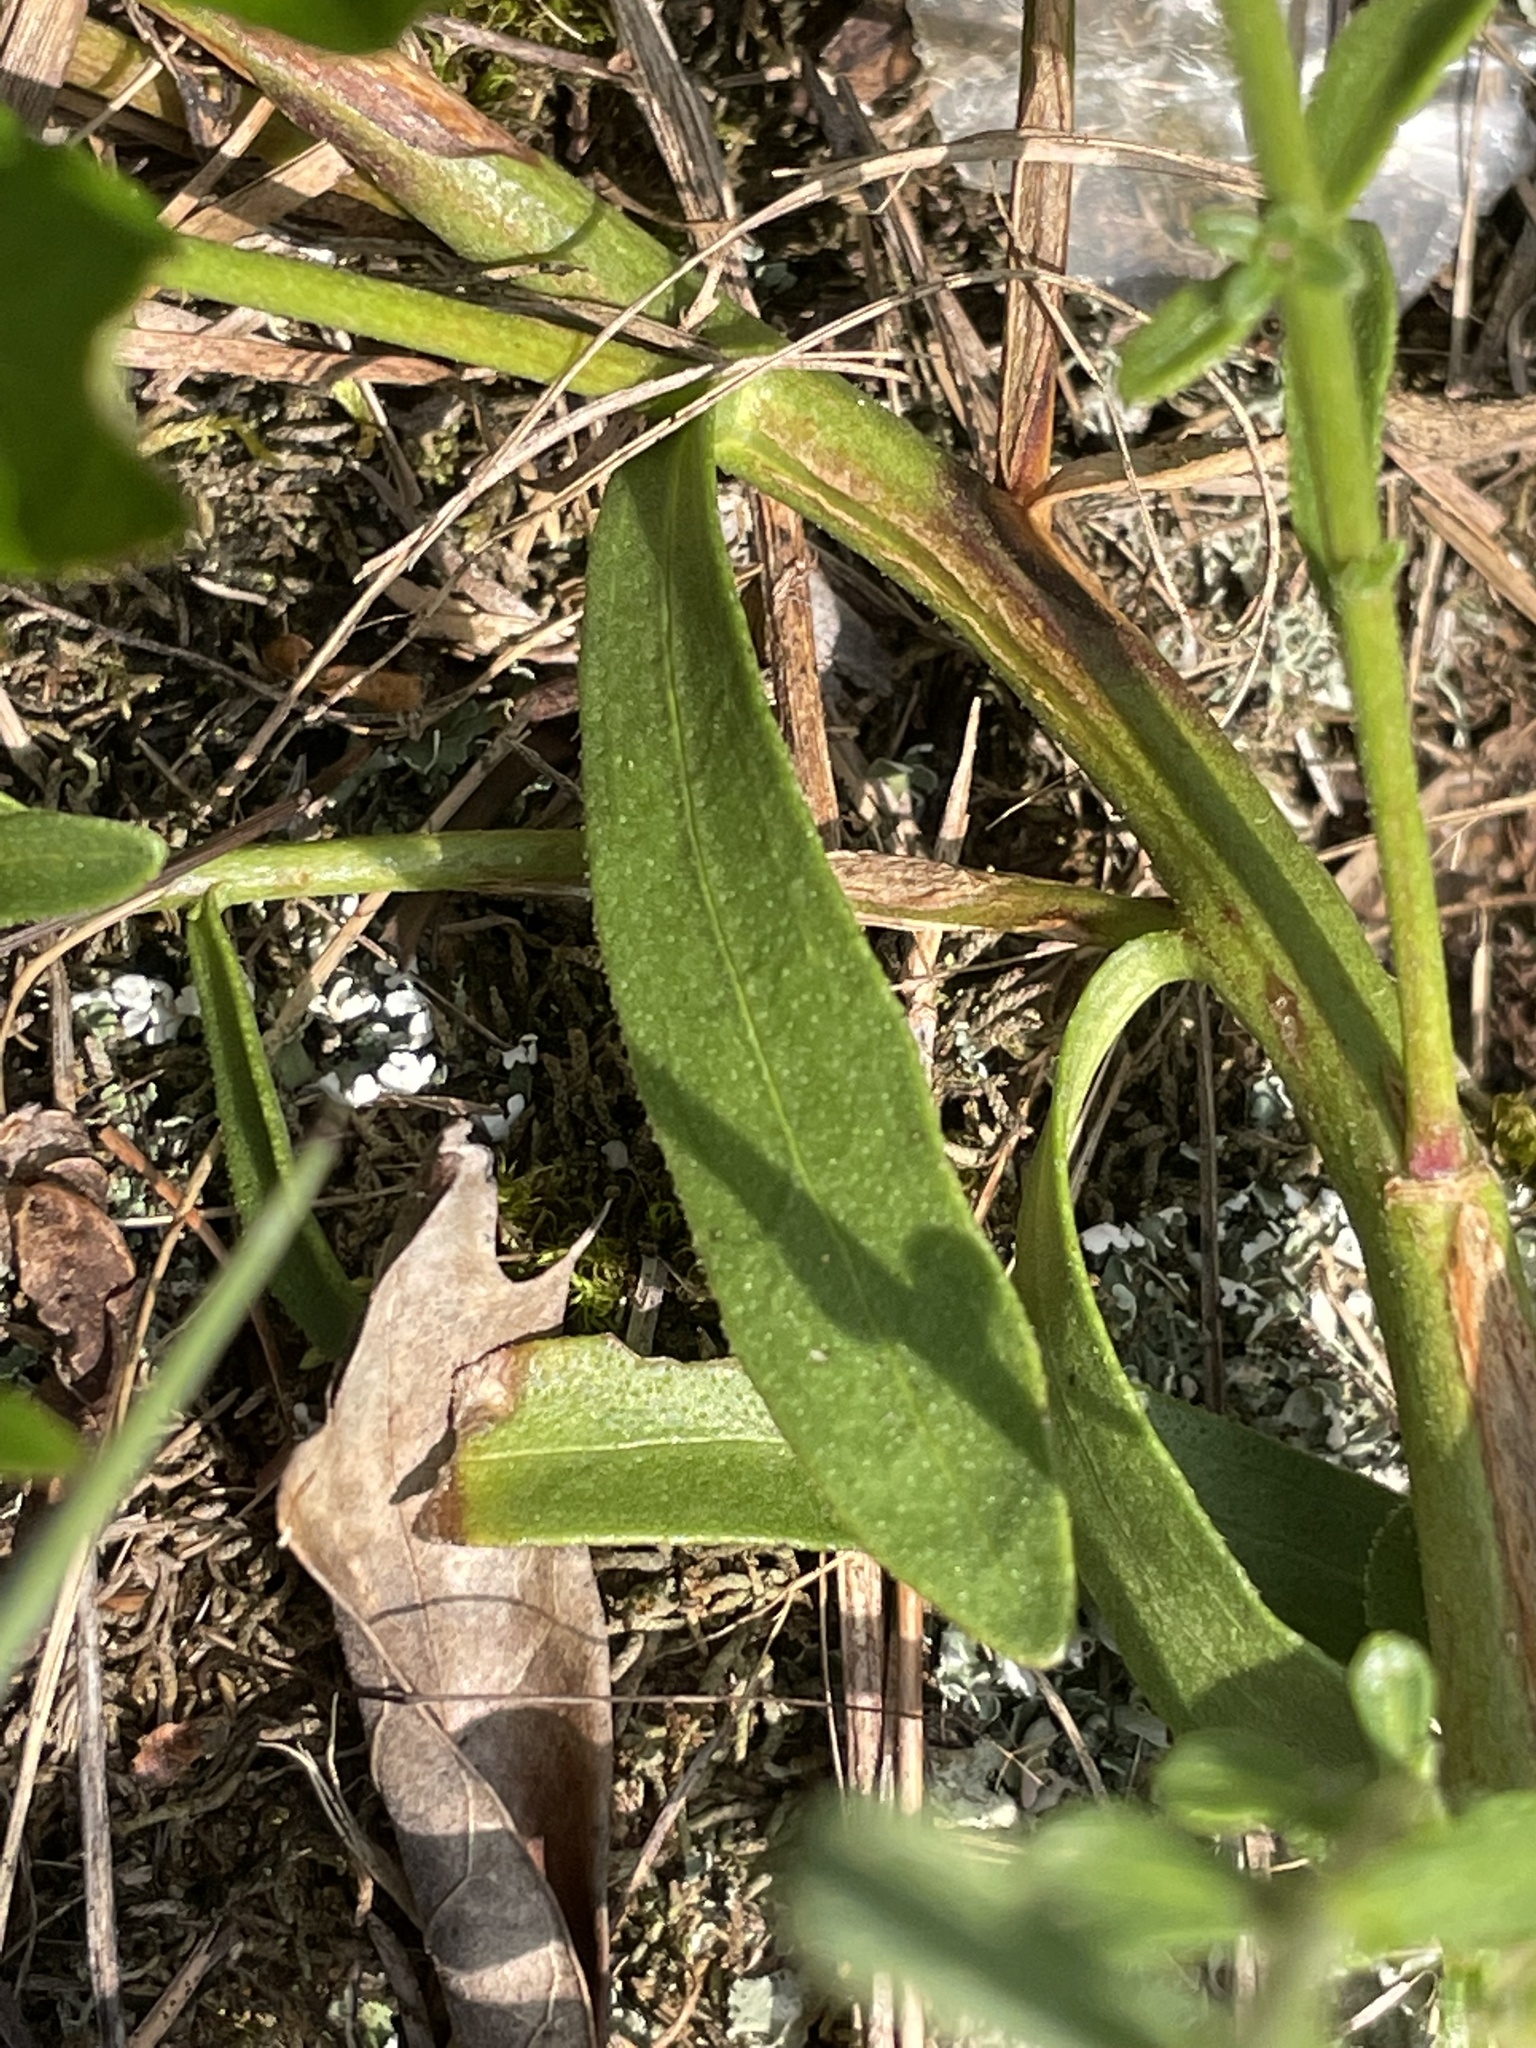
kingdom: Plantae
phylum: Tracheophyta
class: Magnoliopsida
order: Asterales
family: Asteraceae
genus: Carphephorus
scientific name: Carphephorus bellidifolius
